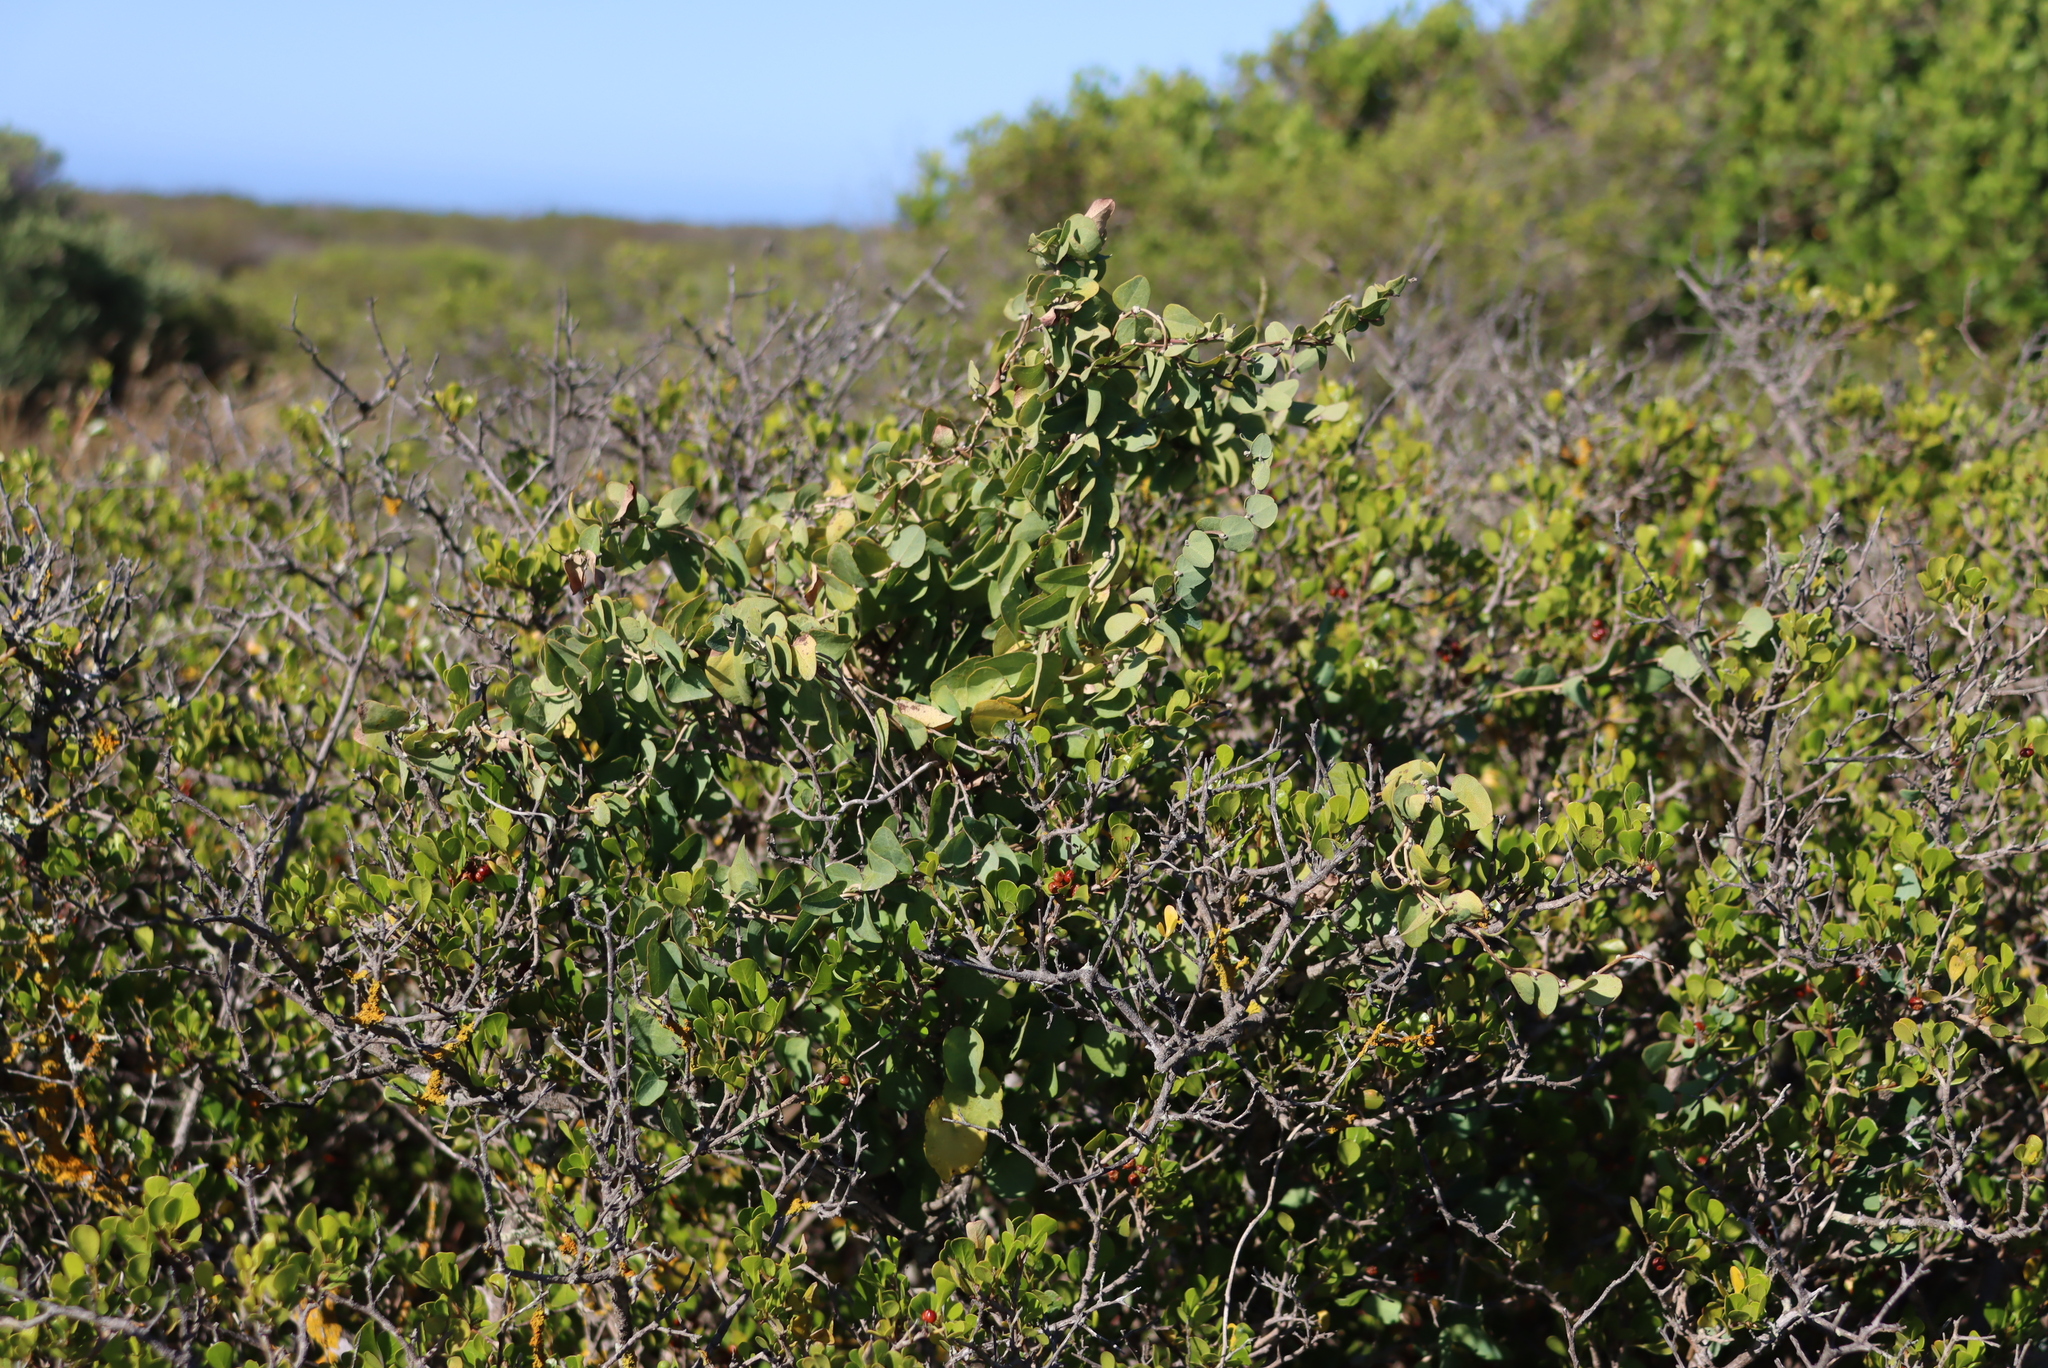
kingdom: Plantae
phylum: Tracheophyta
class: Magnoliopsida
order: Ranunculales
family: Menispermaceae
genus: Cissampelos
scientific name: Cissampelos capensis
